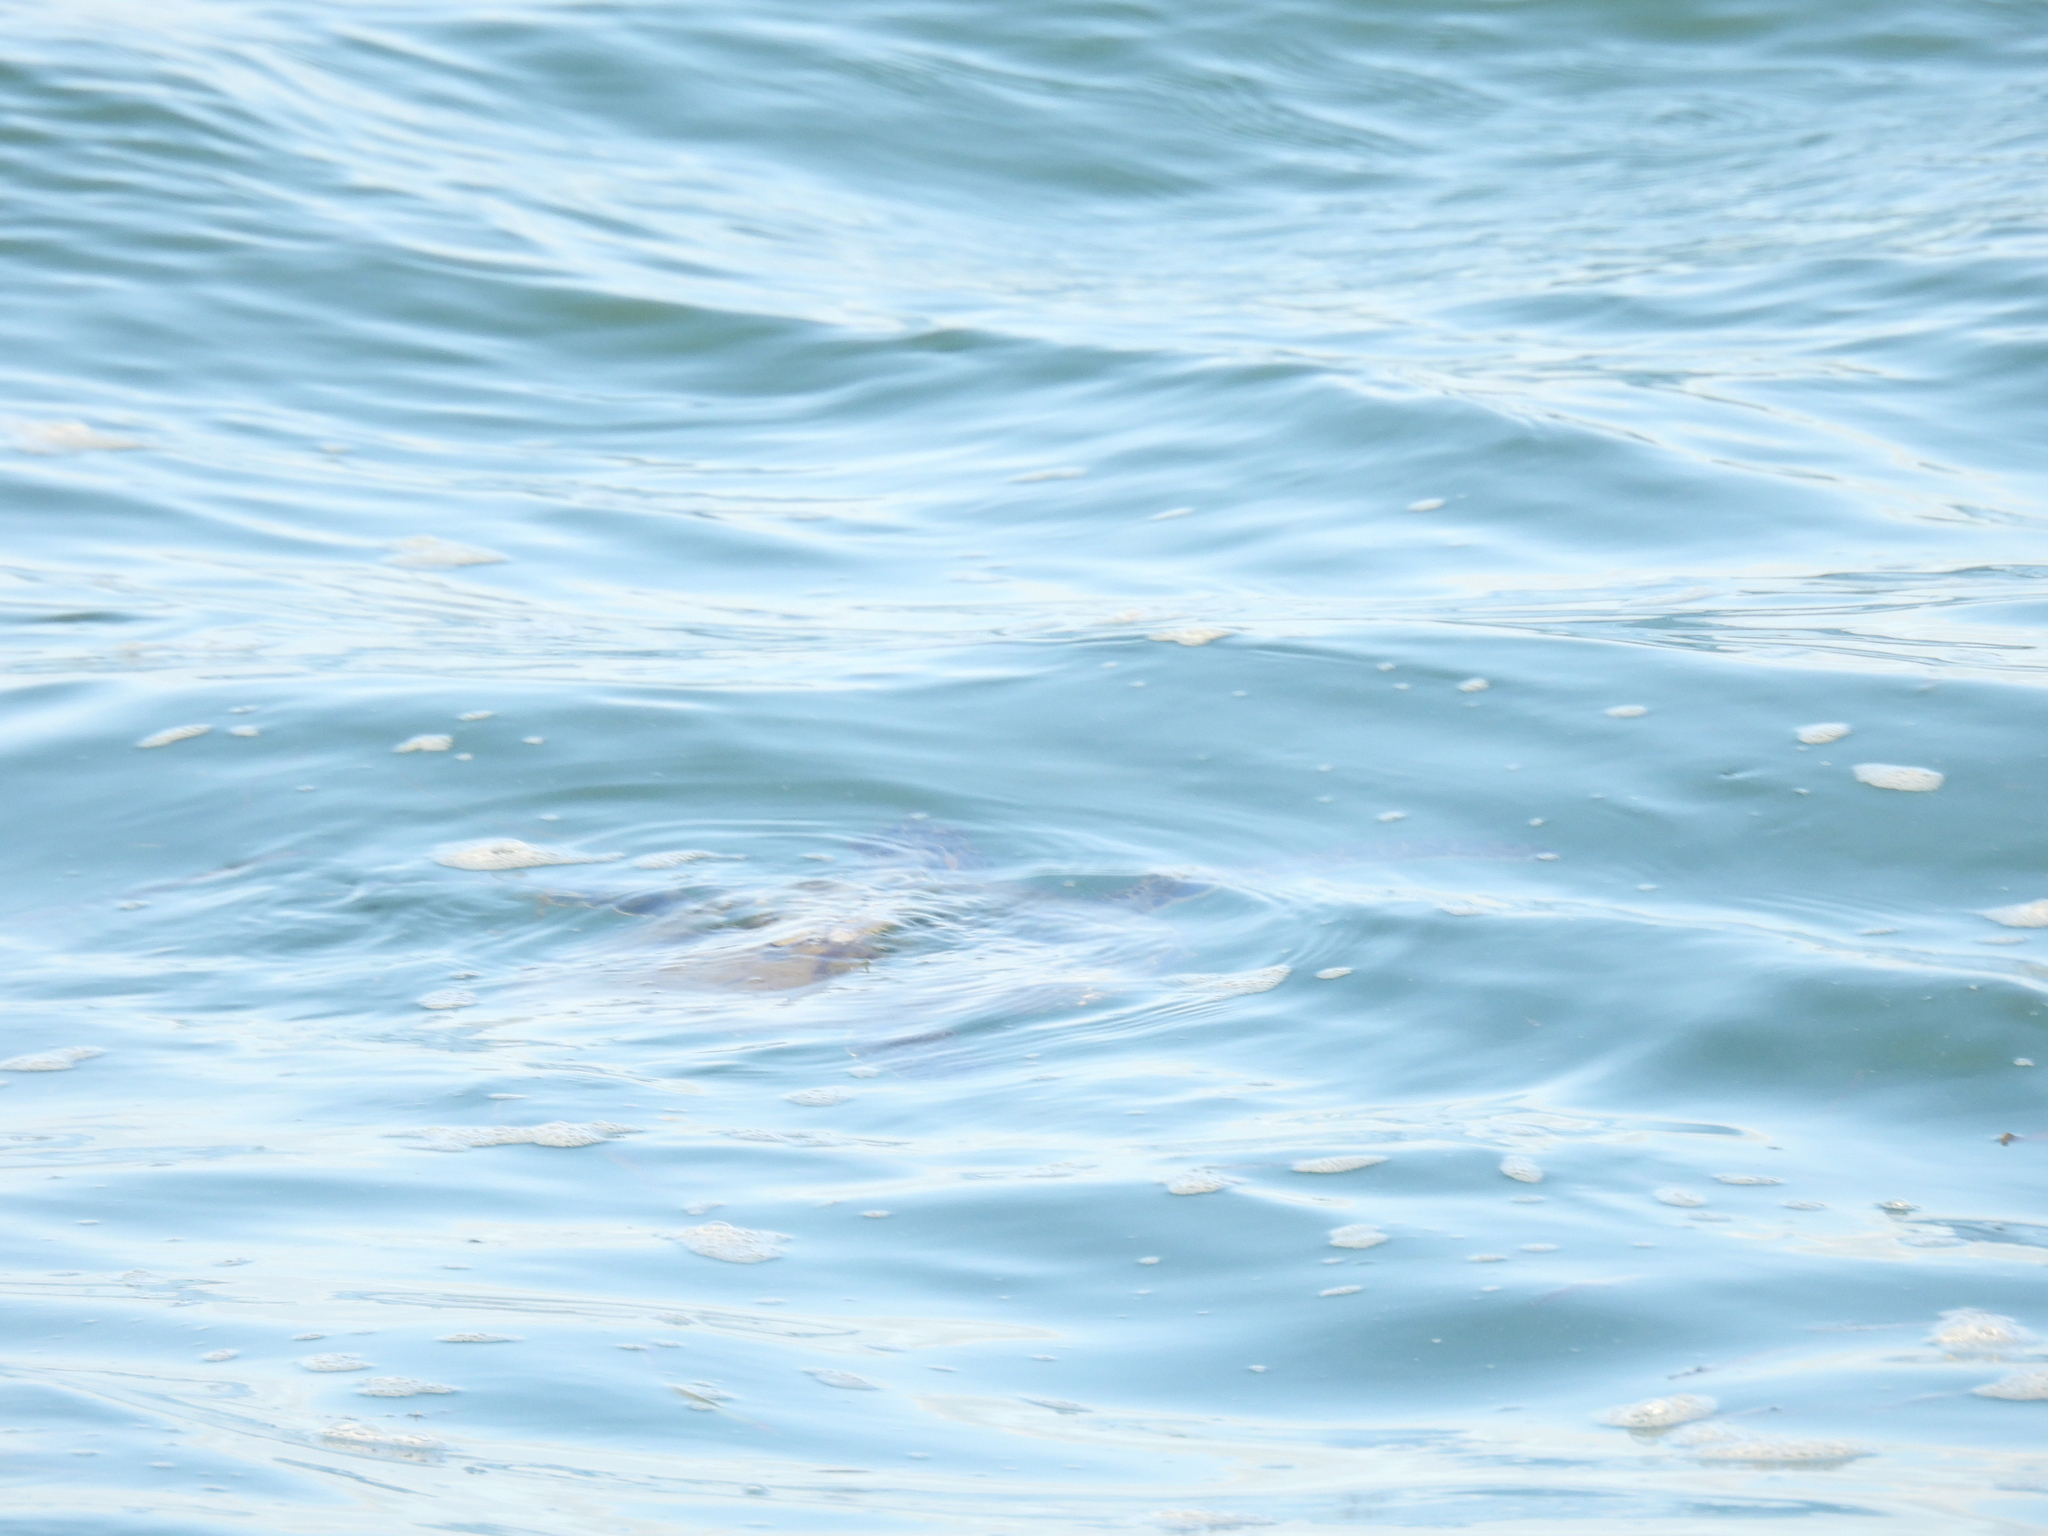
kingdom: Animalia
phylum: Chordata
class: Testudines
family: Cheloniidae
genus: Chelonia
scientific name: Chelonia mydas
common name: Green turtle
